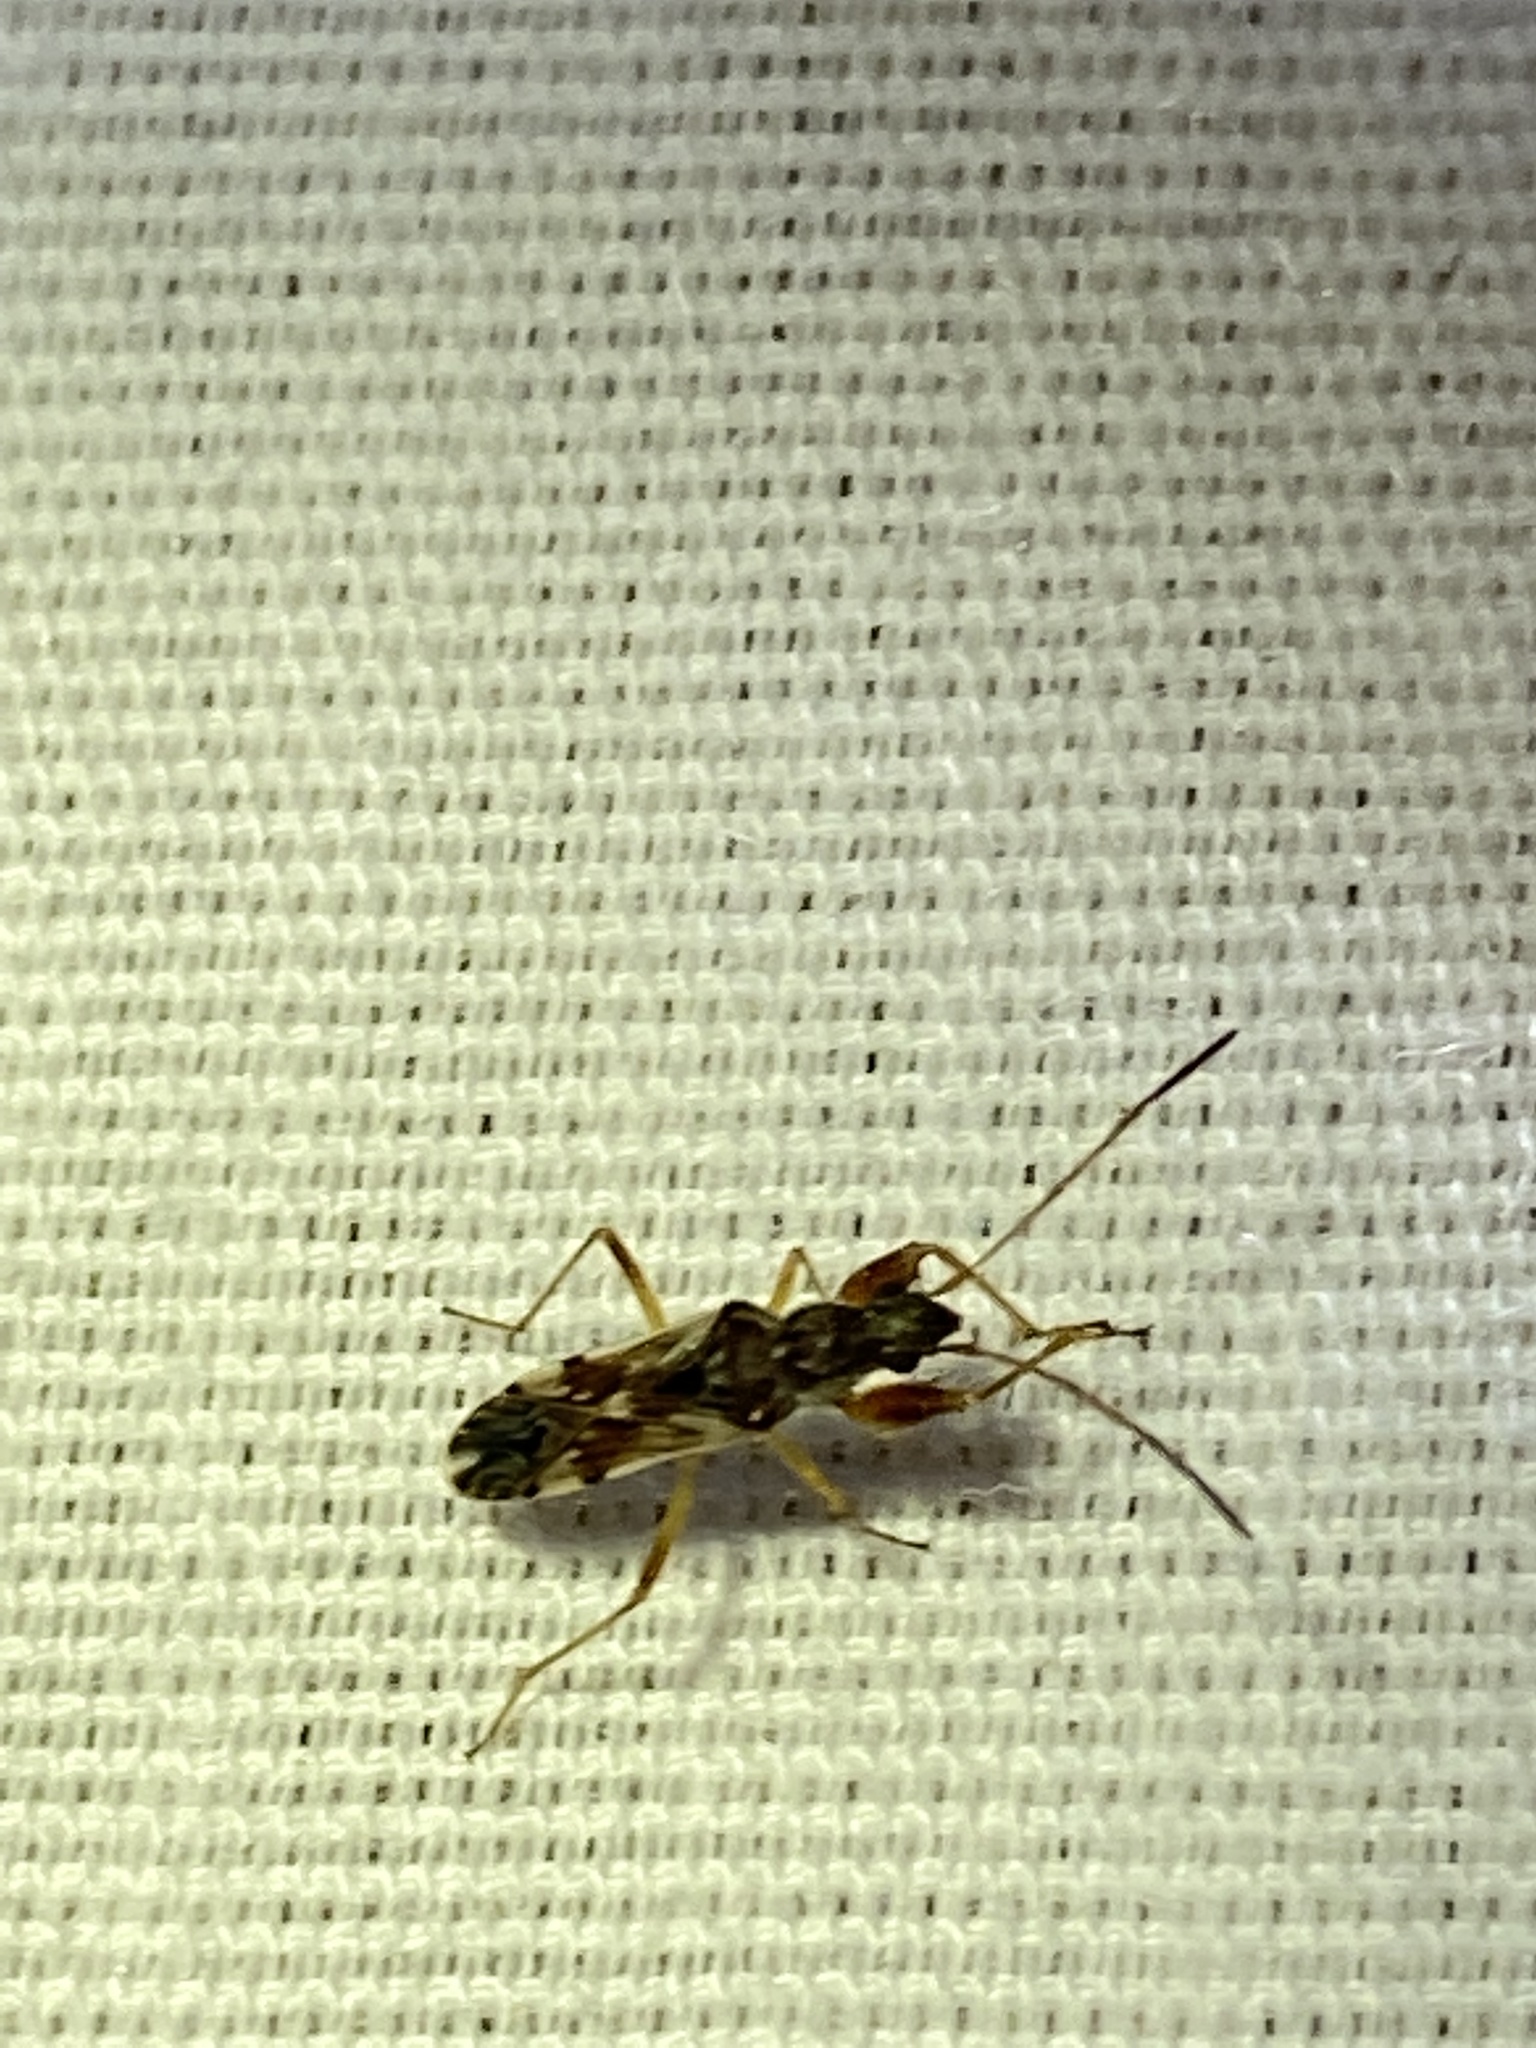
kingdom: Animalia
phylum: Arthropoda
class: Insecta
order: Hemiptera
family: Rhyparochromidae
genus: Neopamera
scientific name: Neopamera bilobata
